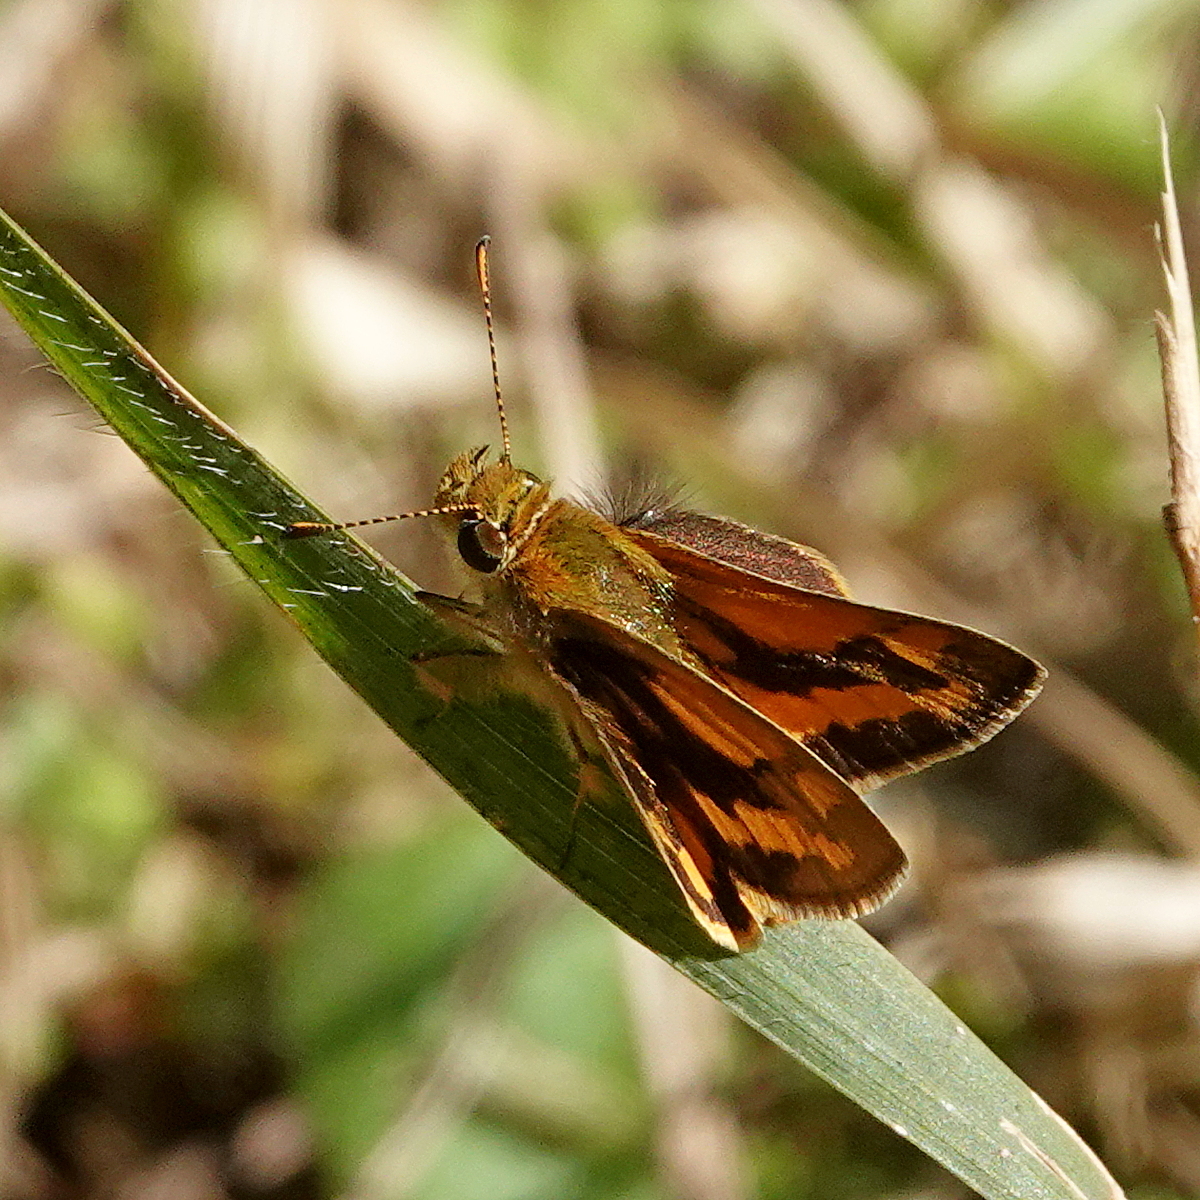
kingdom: Animalia
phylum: Arthropoda
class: Insecta
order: Lepidoptera
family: Hesperiidae
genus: Ocybadistes
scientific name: Ocybadistes walkeri
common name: Yellow-banded dart
